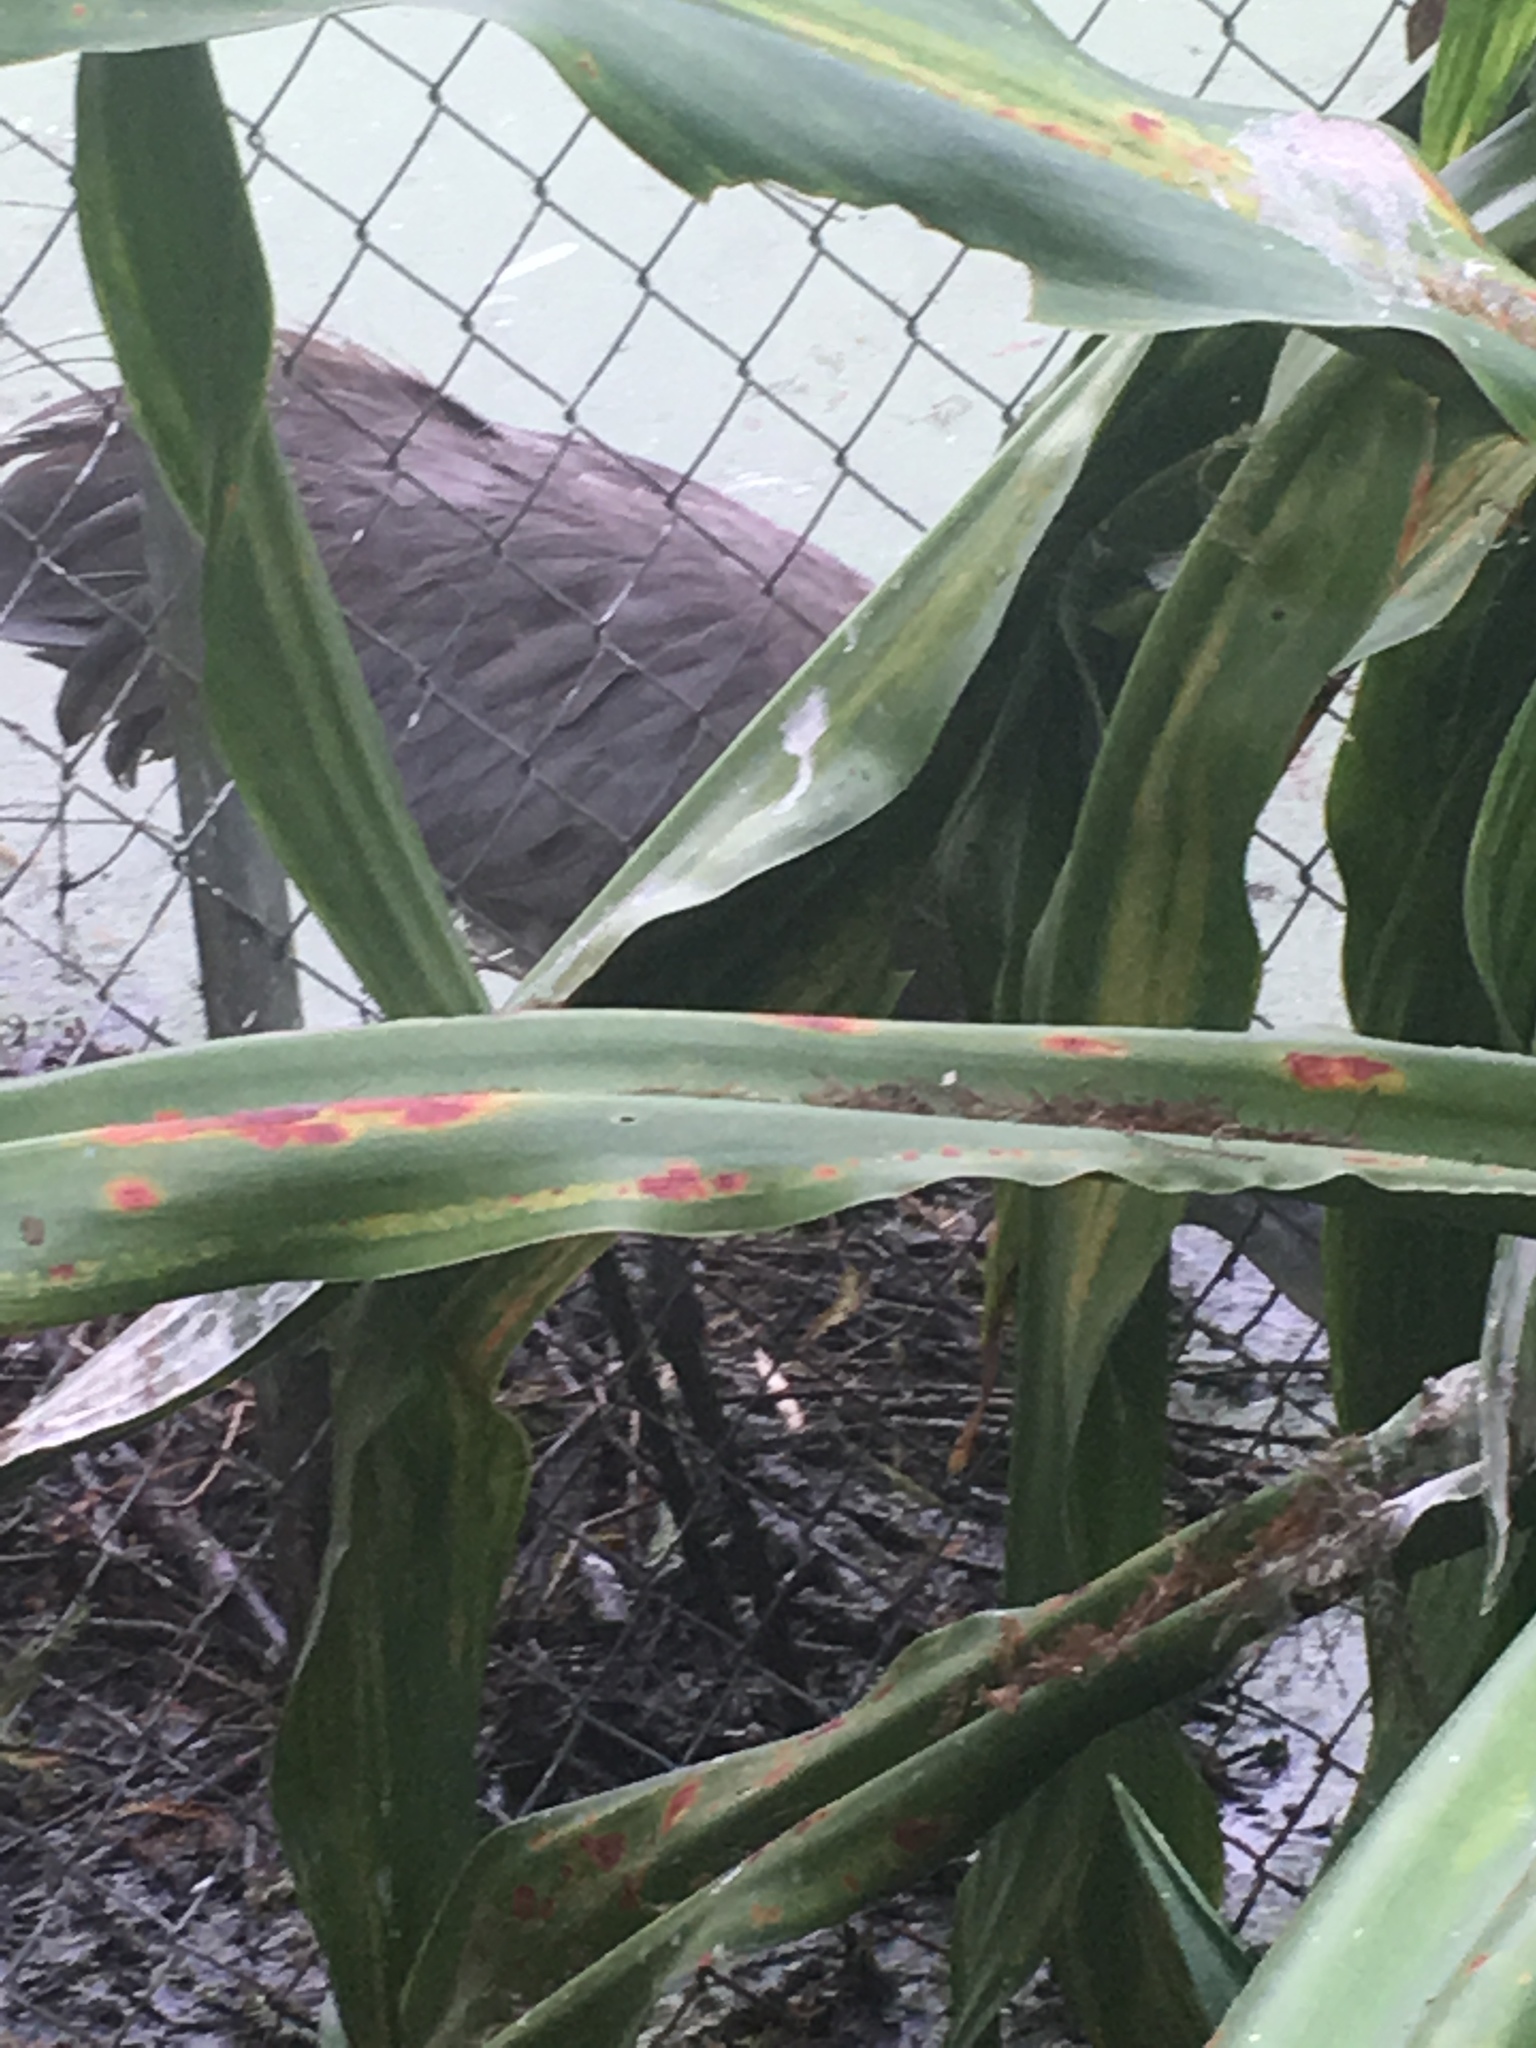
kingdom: Animalia
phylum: Chordata
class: Aves
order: Gruiformes
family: Gruidae
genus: Grus
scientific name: Grus canadensis
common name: Sandhill crane
